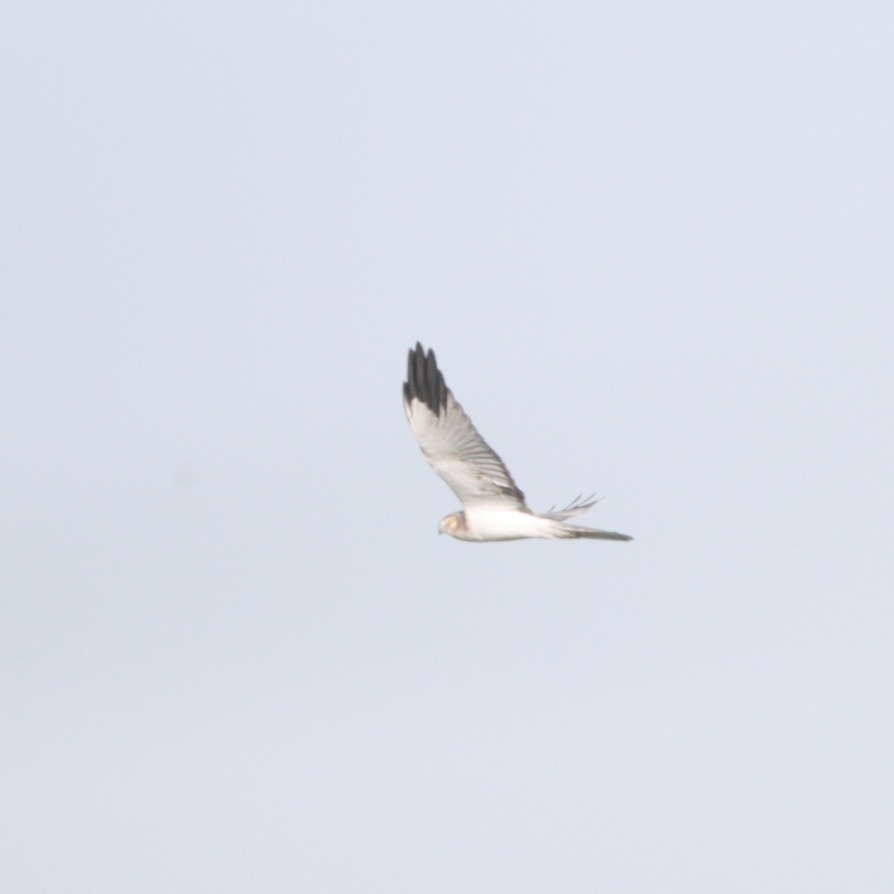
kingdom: Animalia
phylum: Chordata
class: Aves
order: Accipitriformes
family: Accipitridae
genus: Circus
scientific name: Circus cyaneus
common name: Hen harrier
